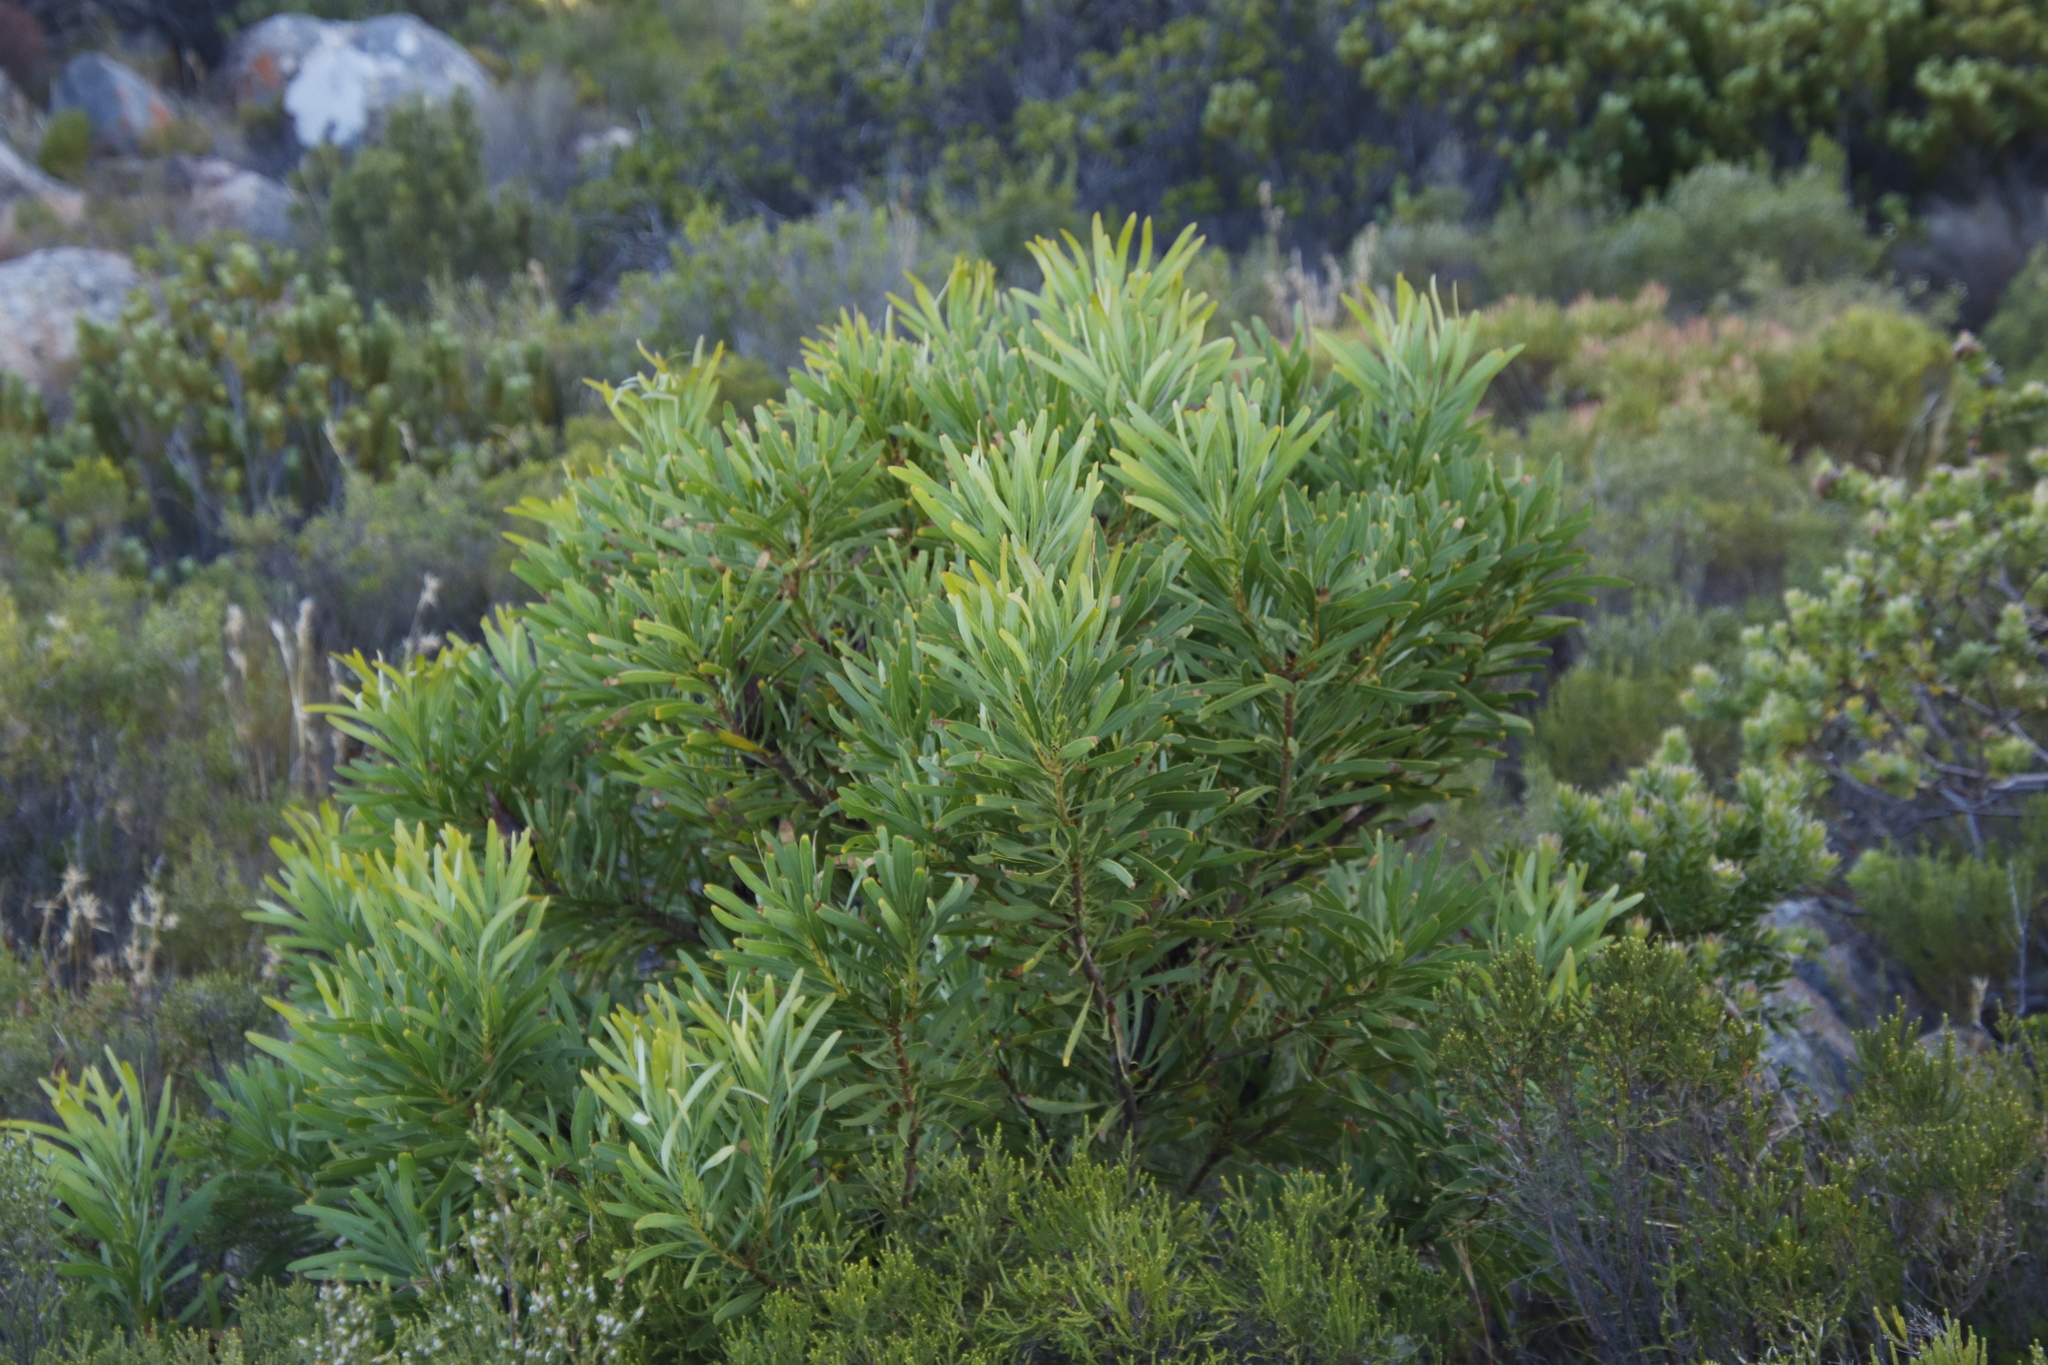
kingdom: Plantae
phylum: Tracheophyta
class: Magnoliopsida
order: Proteales
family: Proteaceae
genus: Protea
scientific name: Protea repens
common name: Sugarbush
